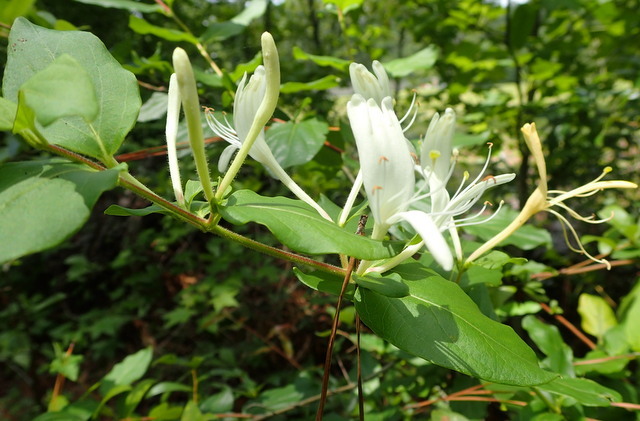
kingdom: Plantae
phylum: Tracheophyta
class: Magnoliopsida
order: Dipsacales
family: Caprifoliaceae
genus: Lonicera
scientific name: Lonicera japonica
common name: Japanese honeysuckle
